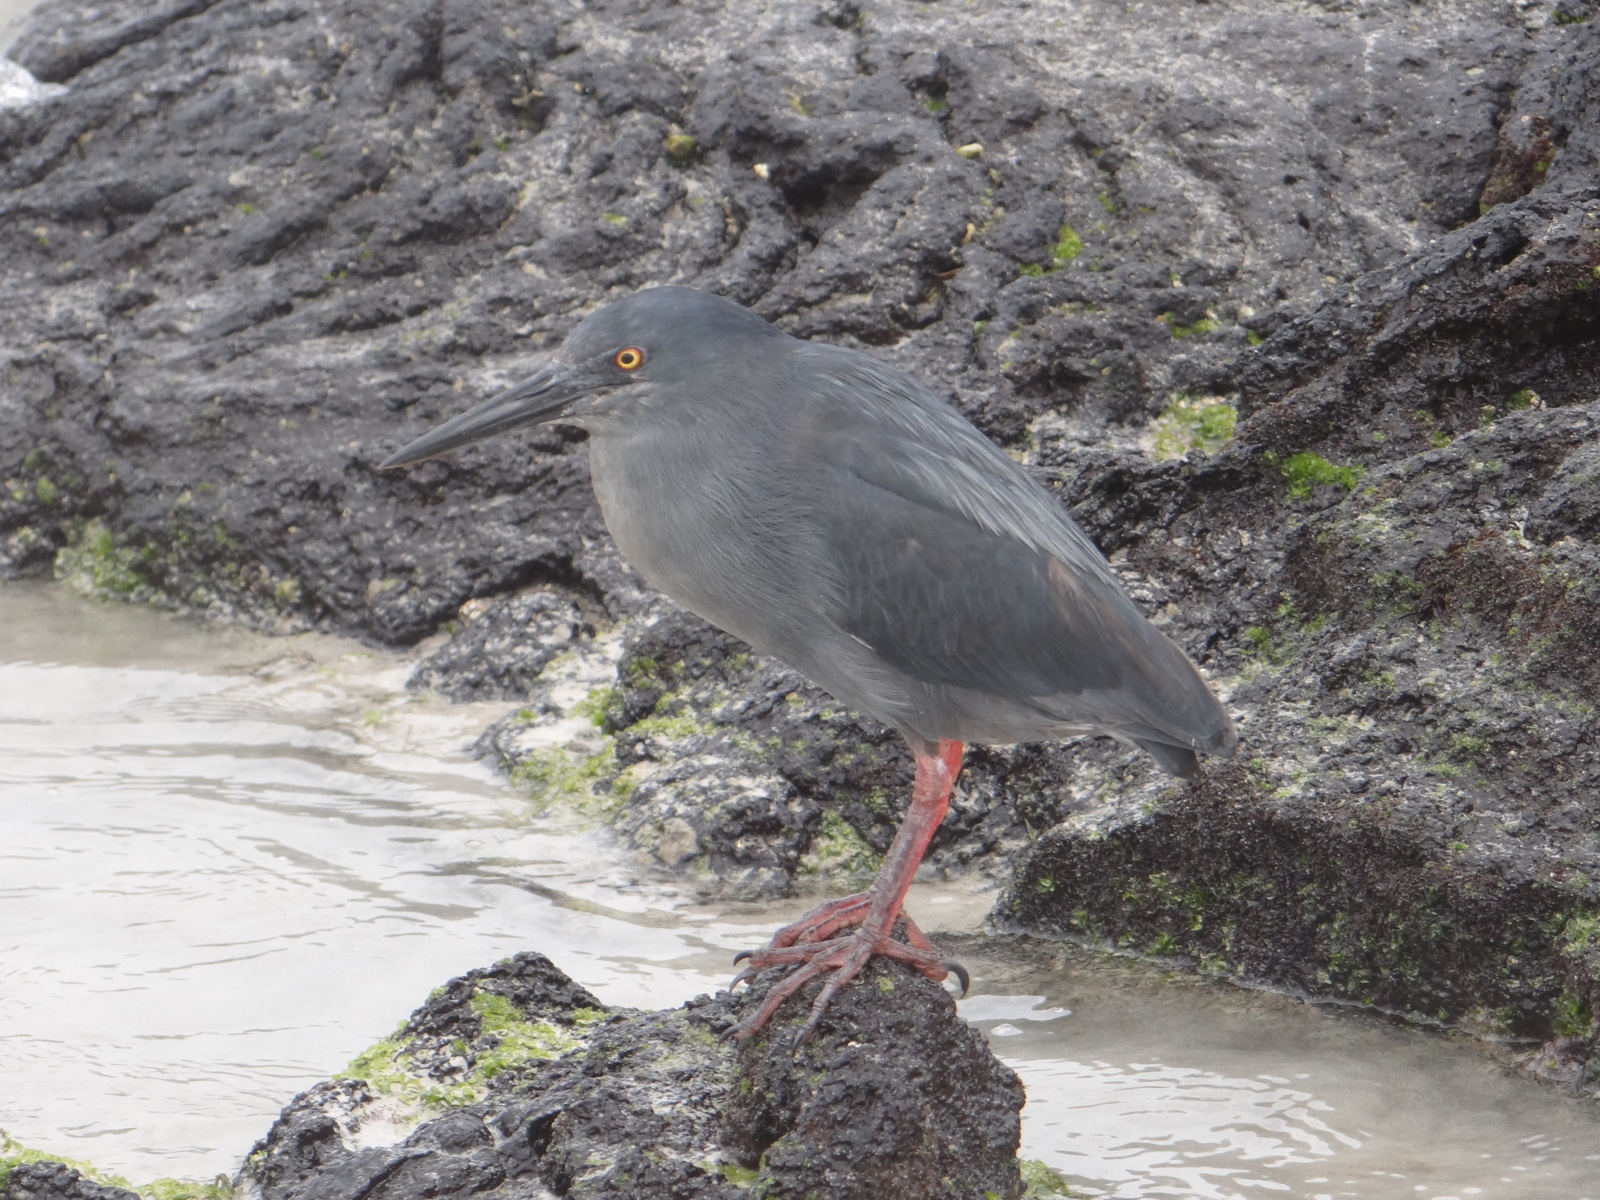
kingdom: Animalia
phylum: Chordata
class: Aves
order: Pelecaniformes
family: Ardeidae
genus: Butorides
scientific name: Butorides striata
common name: Striated heron
